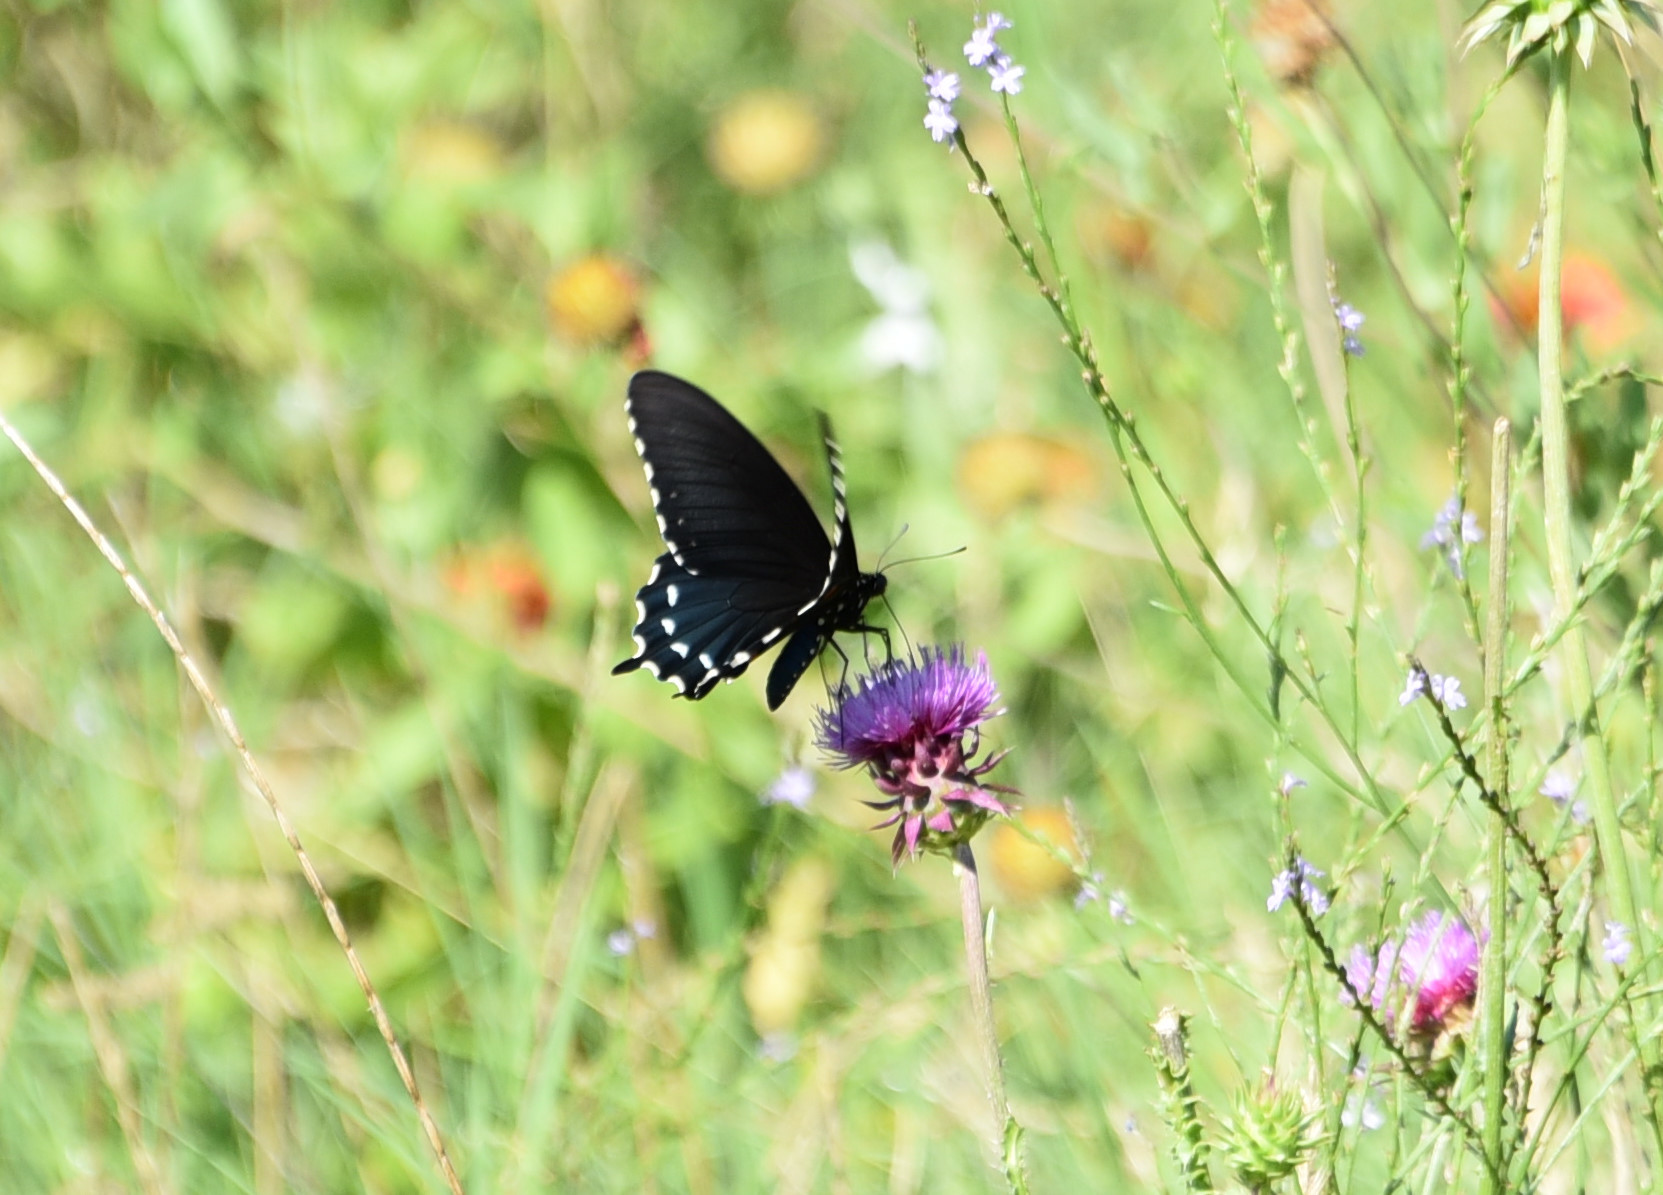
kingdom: Animalia
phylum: Arthropoda
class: Insecta
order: Lepidoptera
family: Papilionidae
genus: Battus
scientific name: Battus philenor
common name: Pipevine swallowtail
